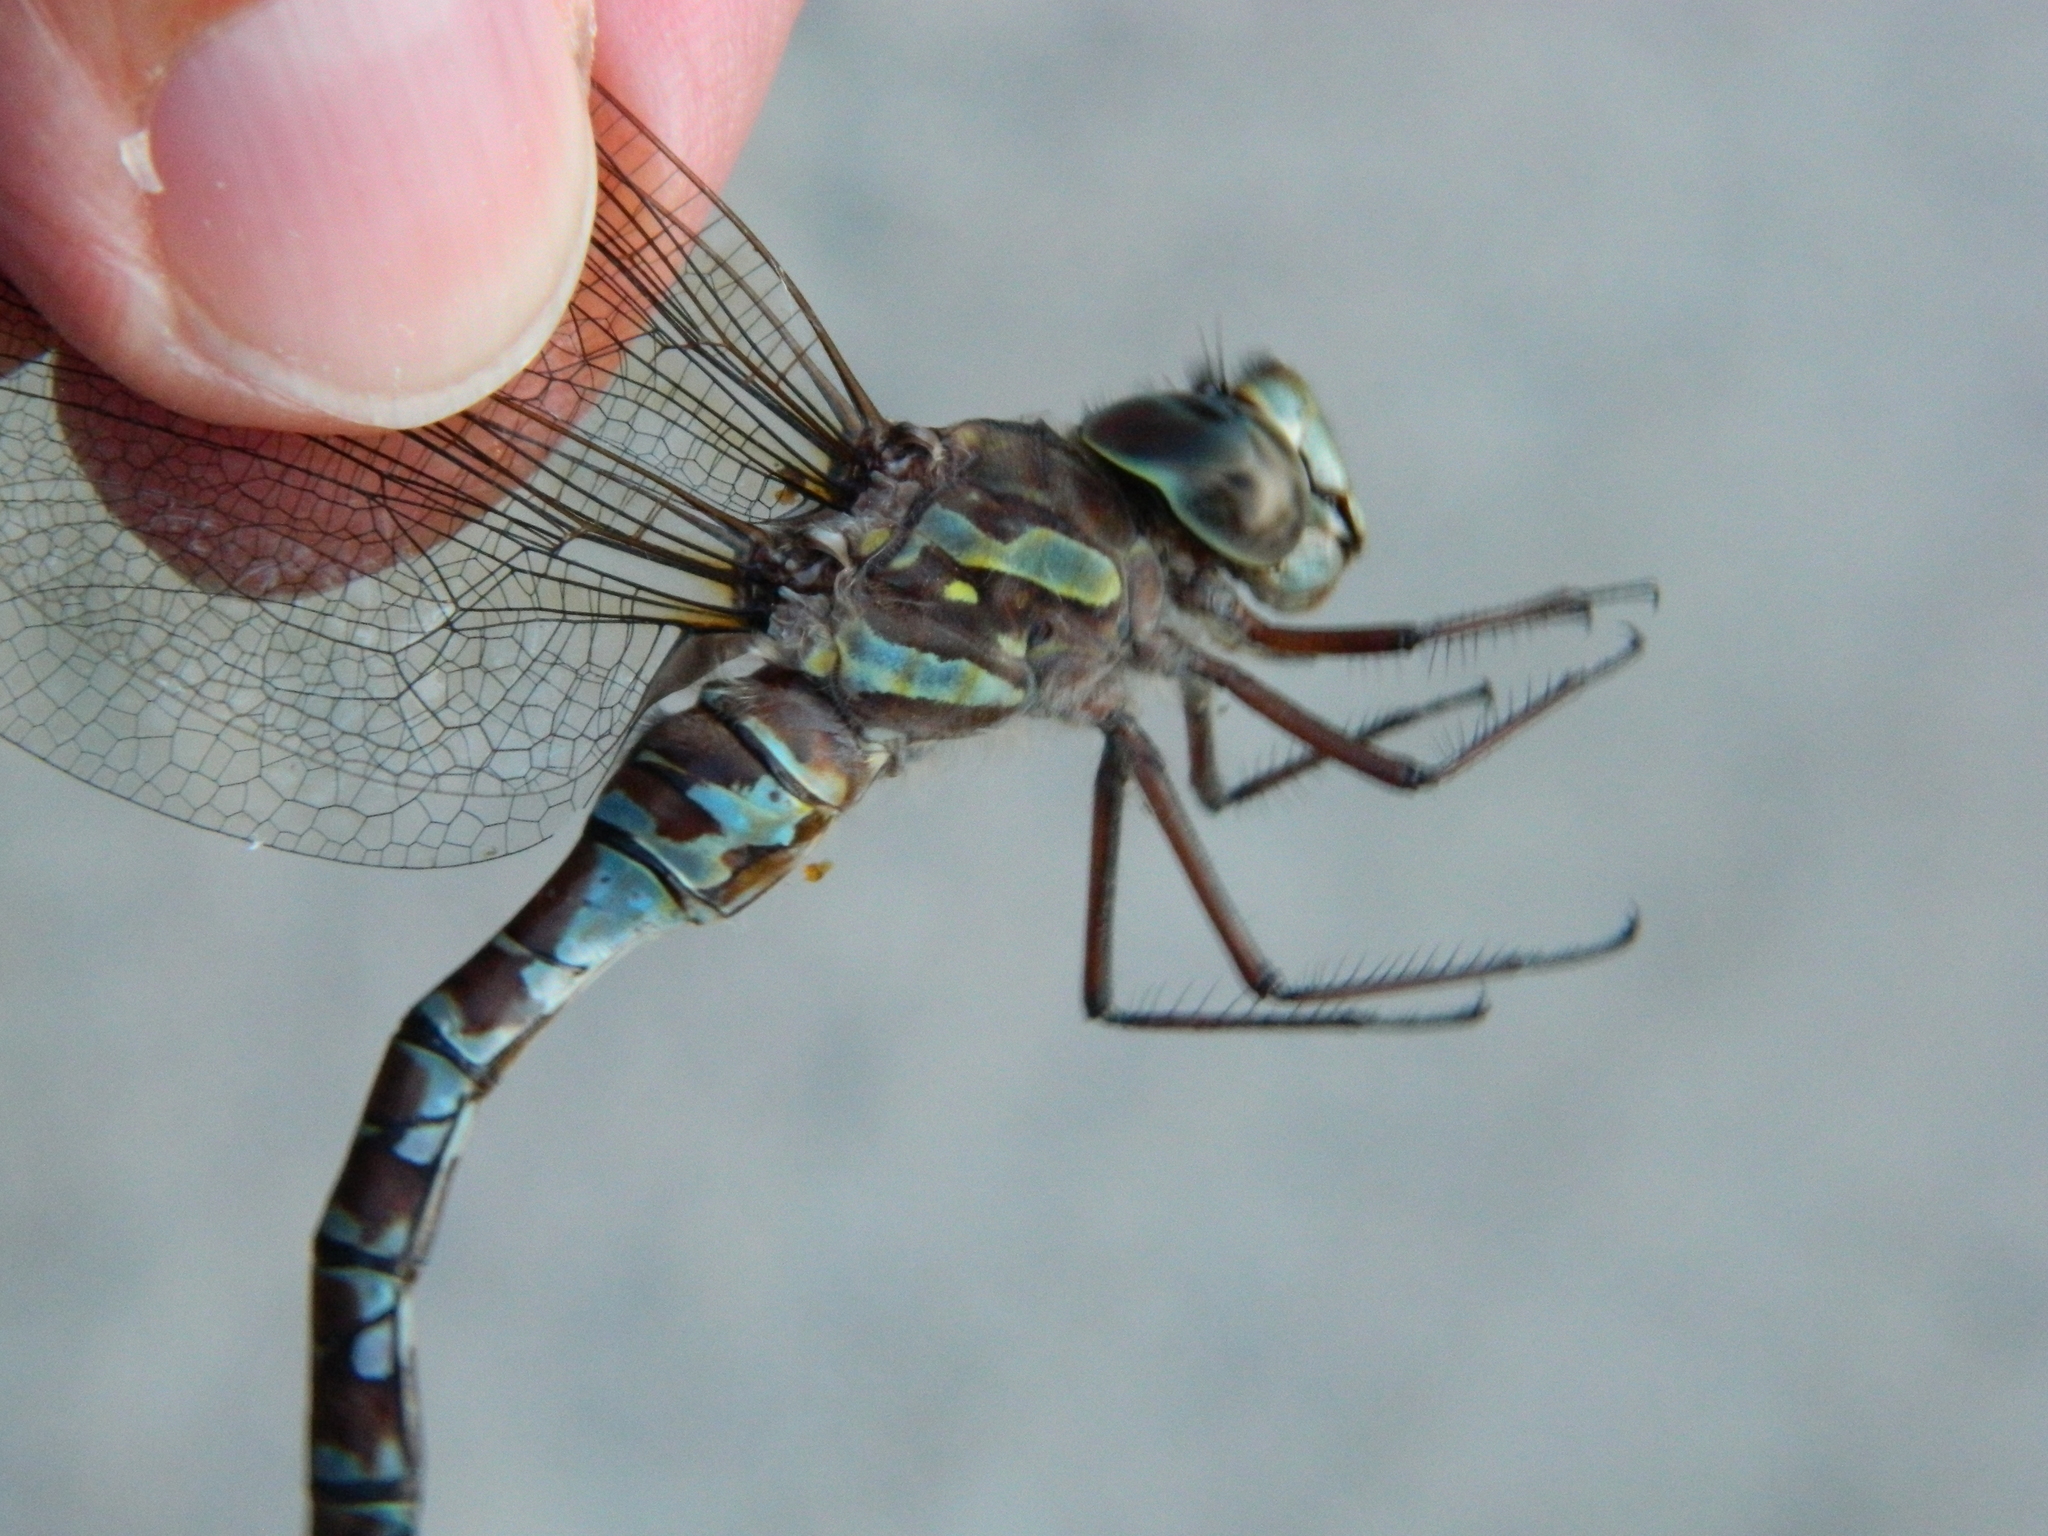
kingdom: Animalia
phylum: Arthropoda
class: Insecta
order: Odonata
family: Aeshnidae
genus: Aeshna
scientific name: Aeshna canadensis
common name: Canada darner
